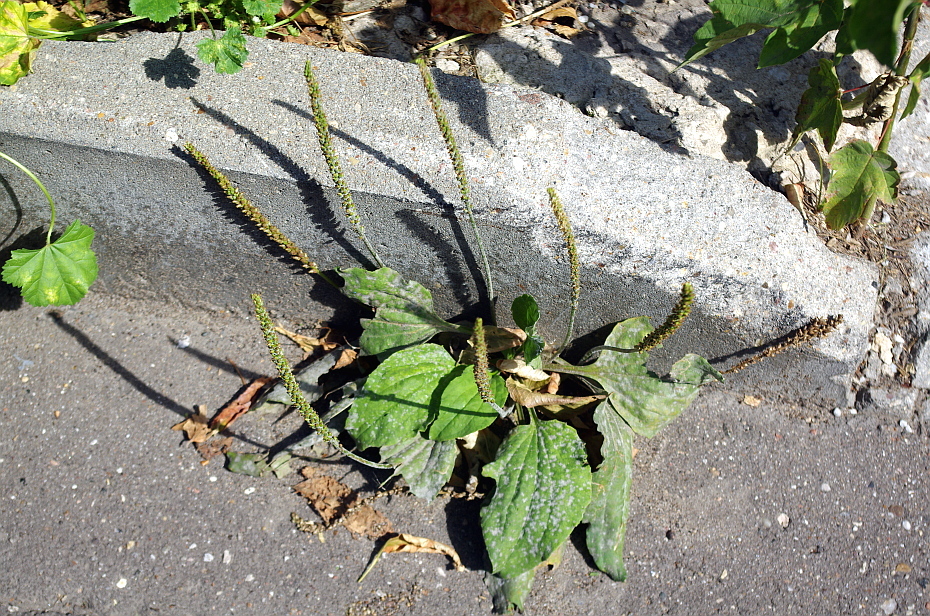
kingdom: Plantae
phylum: Tracheophyta
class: Magnoliopsida
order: Lamiales
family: Plantaginaceae
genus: Plantago
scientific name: Plantago major
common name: Common plantain
